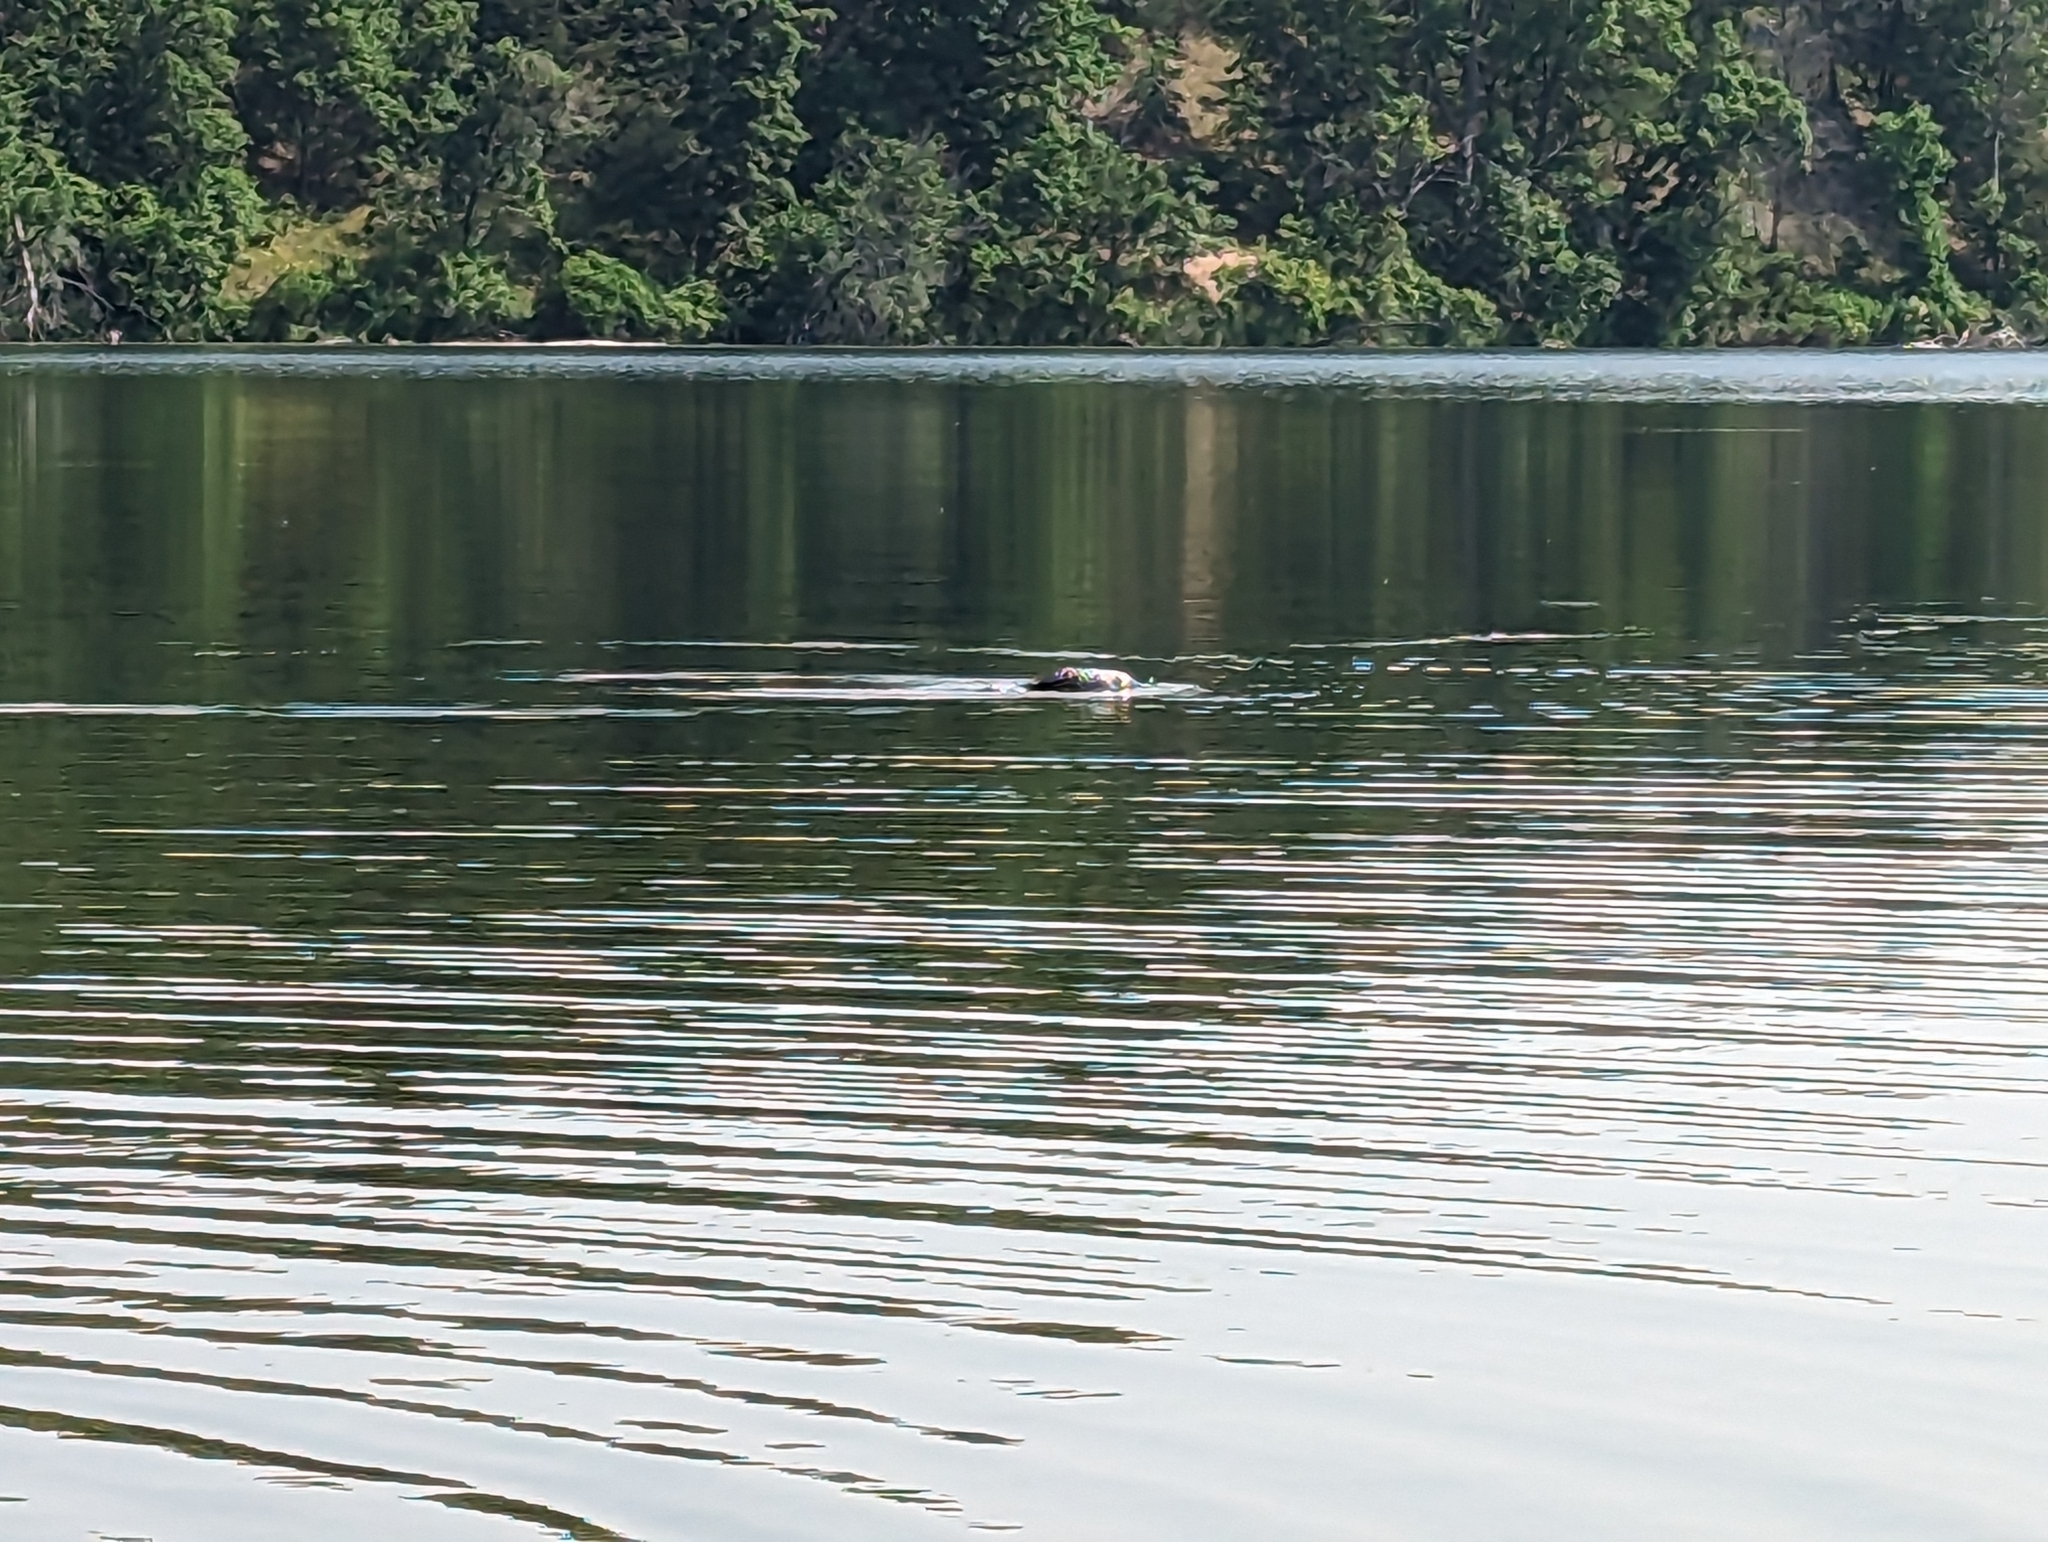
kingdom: Animalia
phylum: Chordata
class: Aves
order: Gaviiformes
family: Gaviidae
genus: Gavia
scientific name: Gavia immer
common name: Common loon
